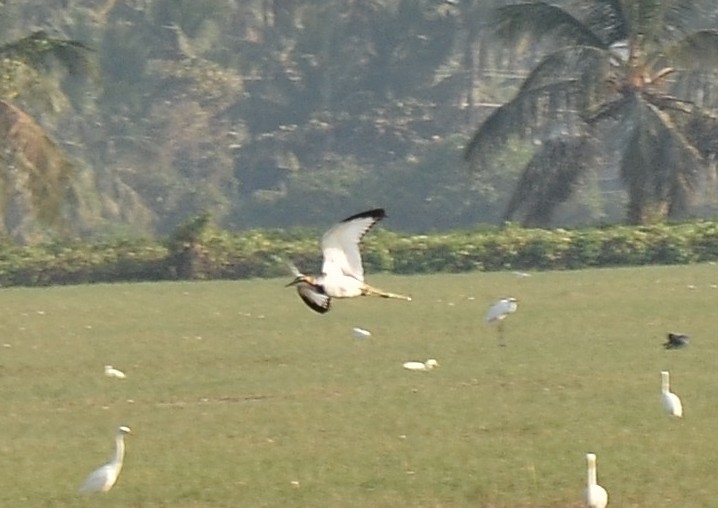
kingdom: Animalia
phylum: Chordata
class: Aves
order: Charadriiformes
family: Jacanidae
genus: Hydrophasianus
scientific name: Hydrophasianus chirurgus
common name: Pheasant-tailed jacana
